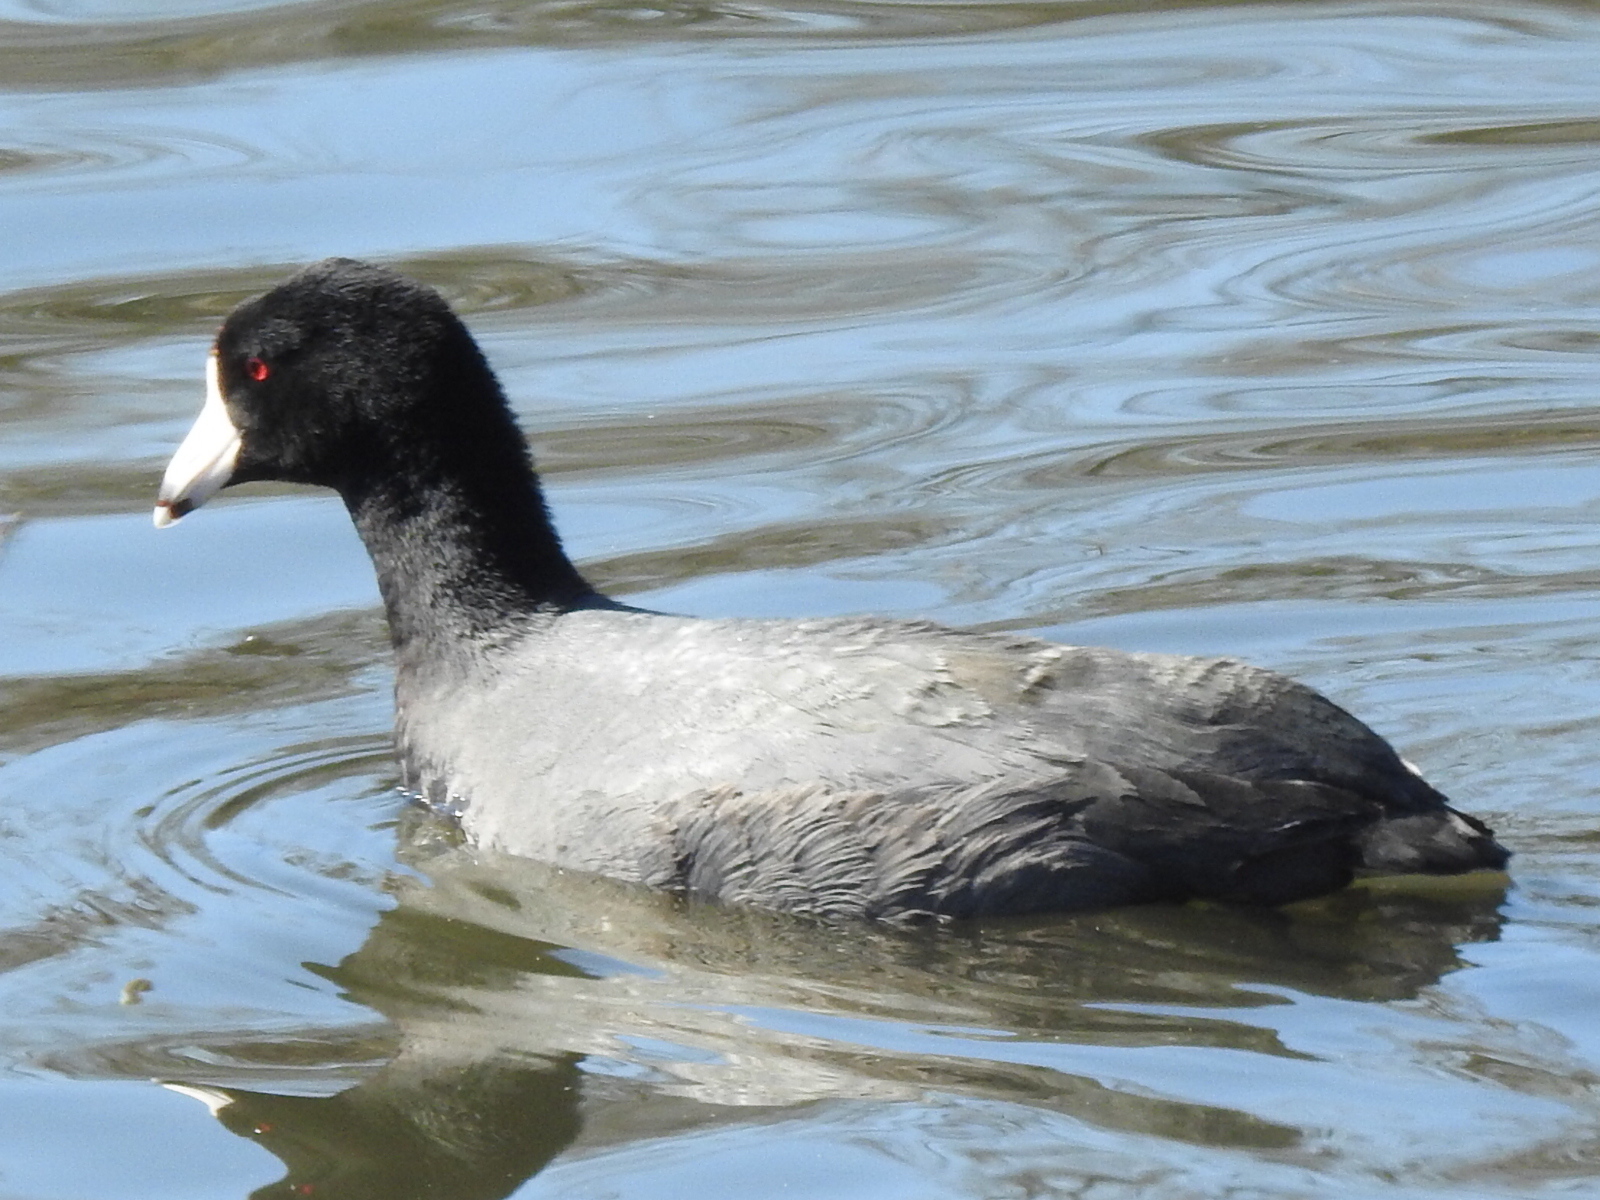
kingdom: Animalia
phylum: Chordata
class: Aves
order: Gruiformes
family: Rallidae
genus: Fulica
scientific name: Fulica americana
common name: American coot
